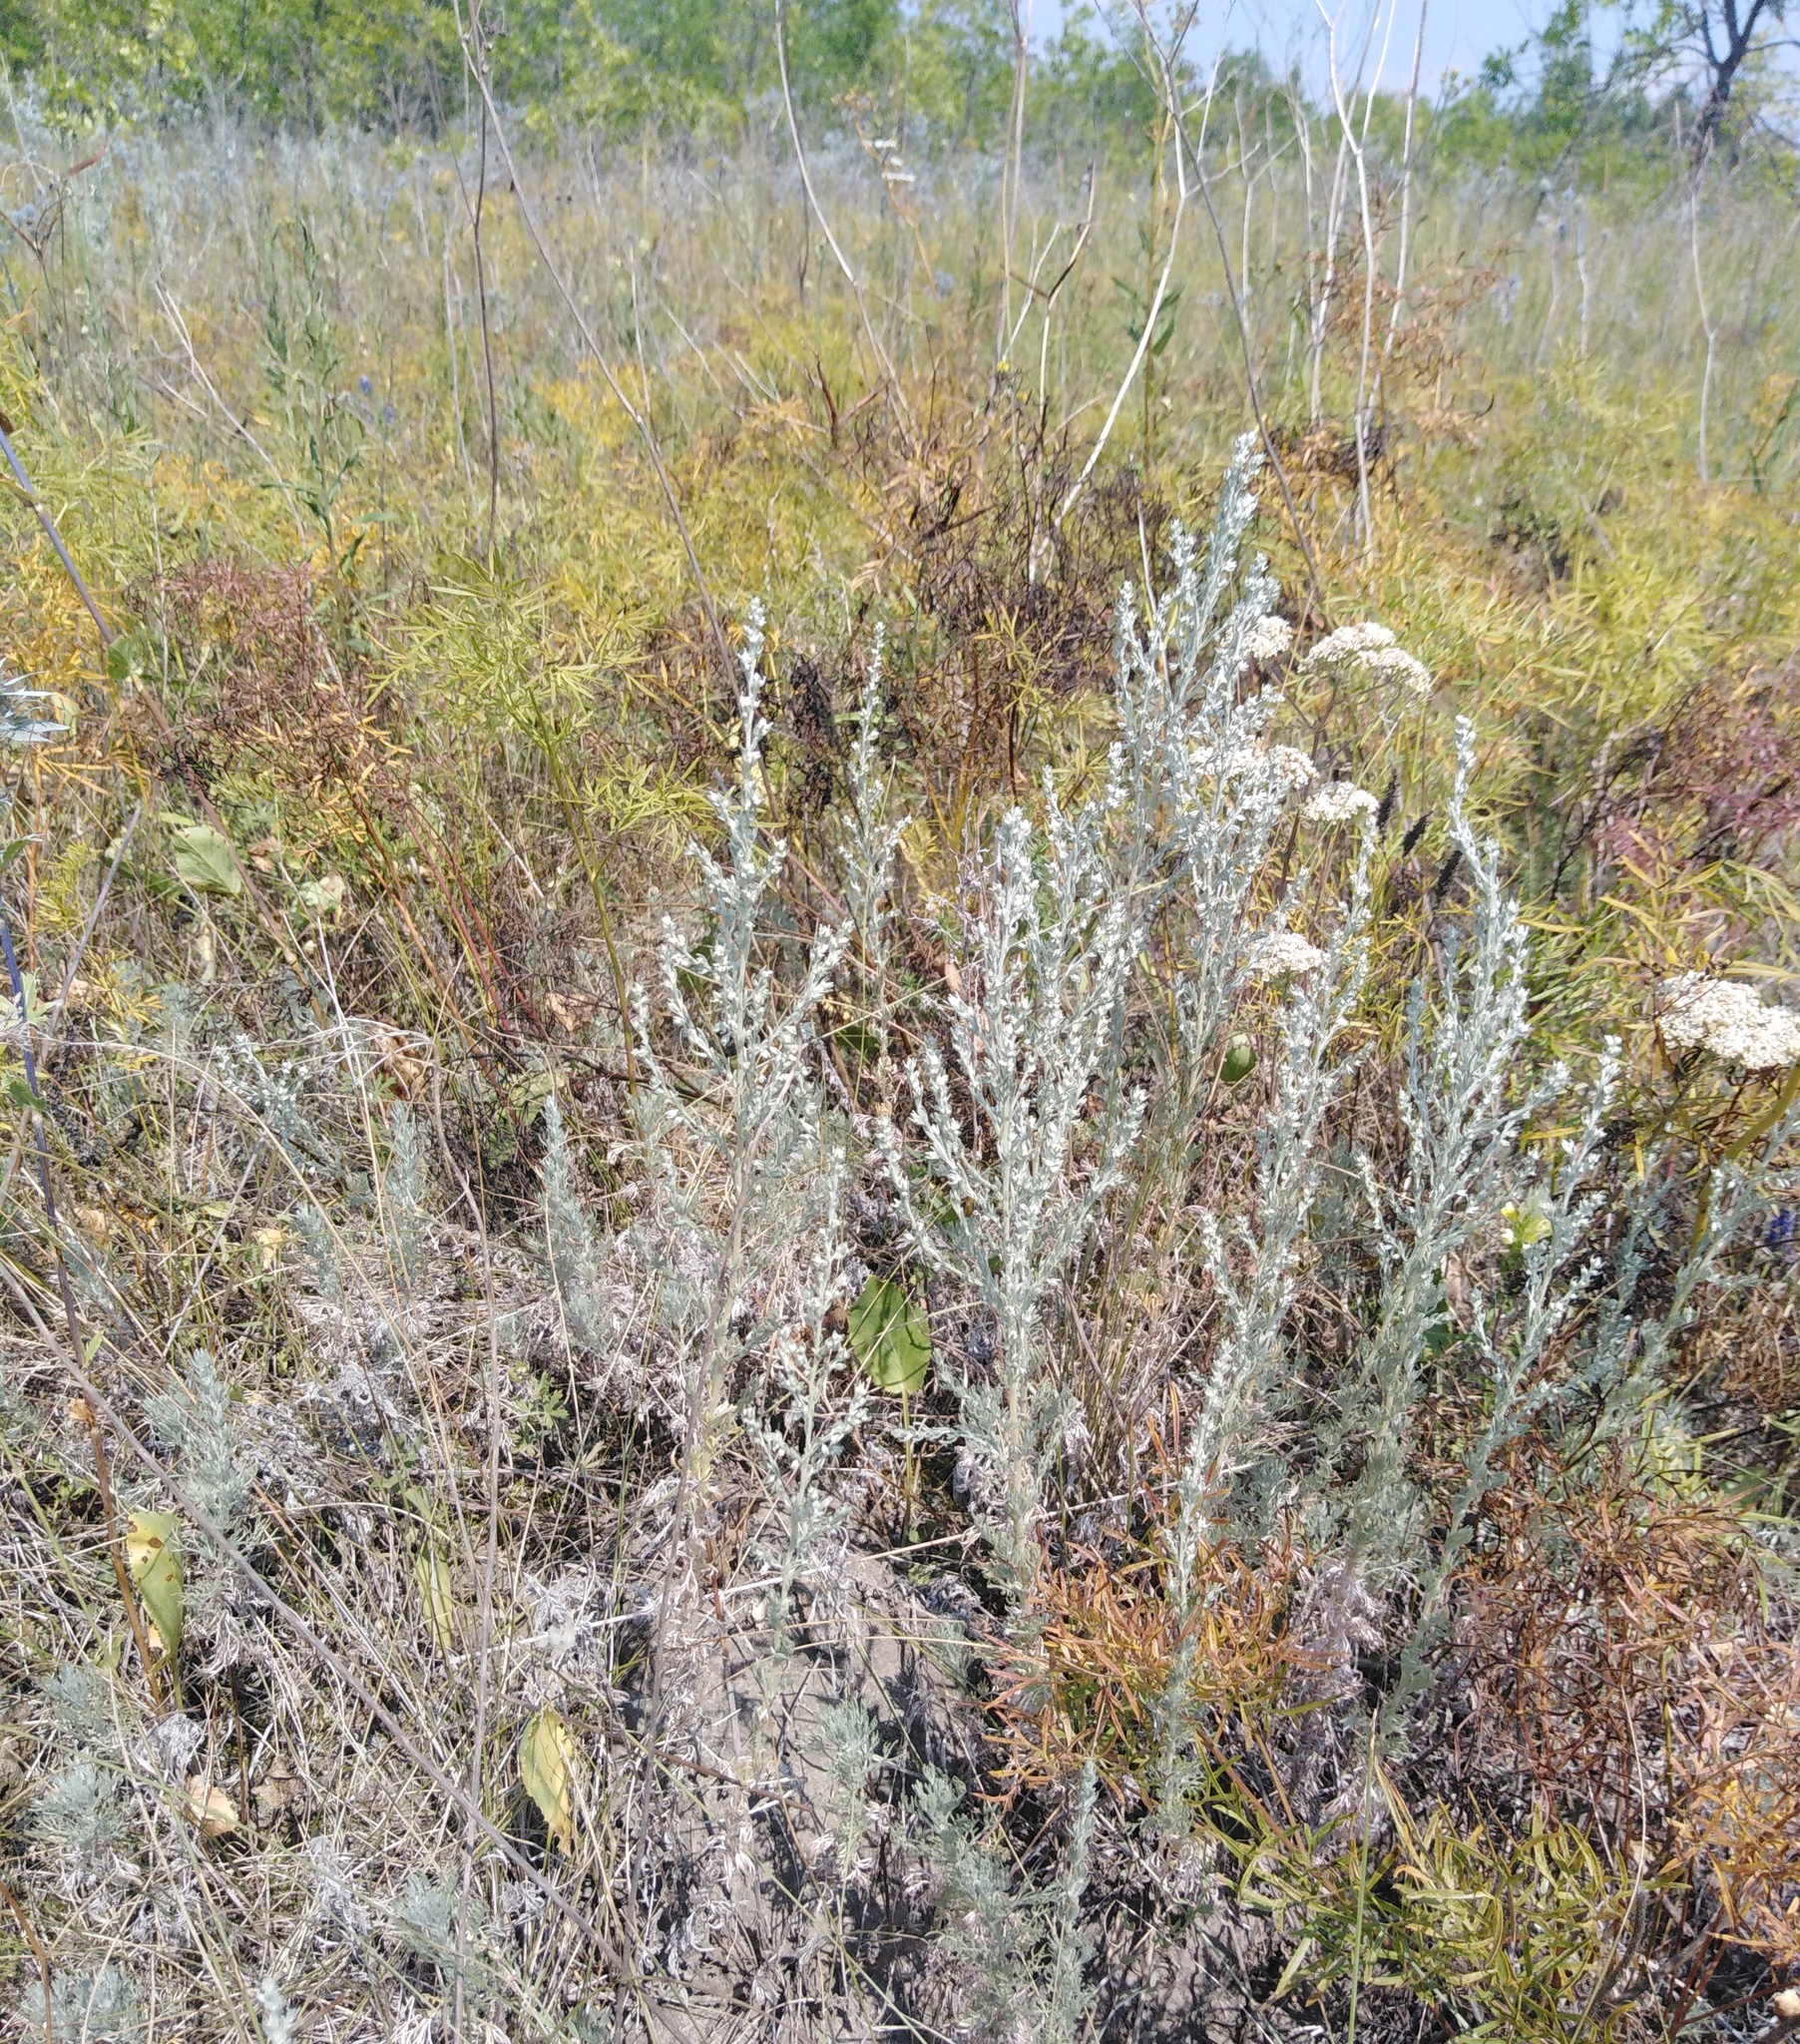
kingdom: Plantae
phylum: Tracheophyta
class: Magnoliopsida
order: Asterales
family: Asteraceae
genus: Artemisia
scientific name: Artemisia austriaca
